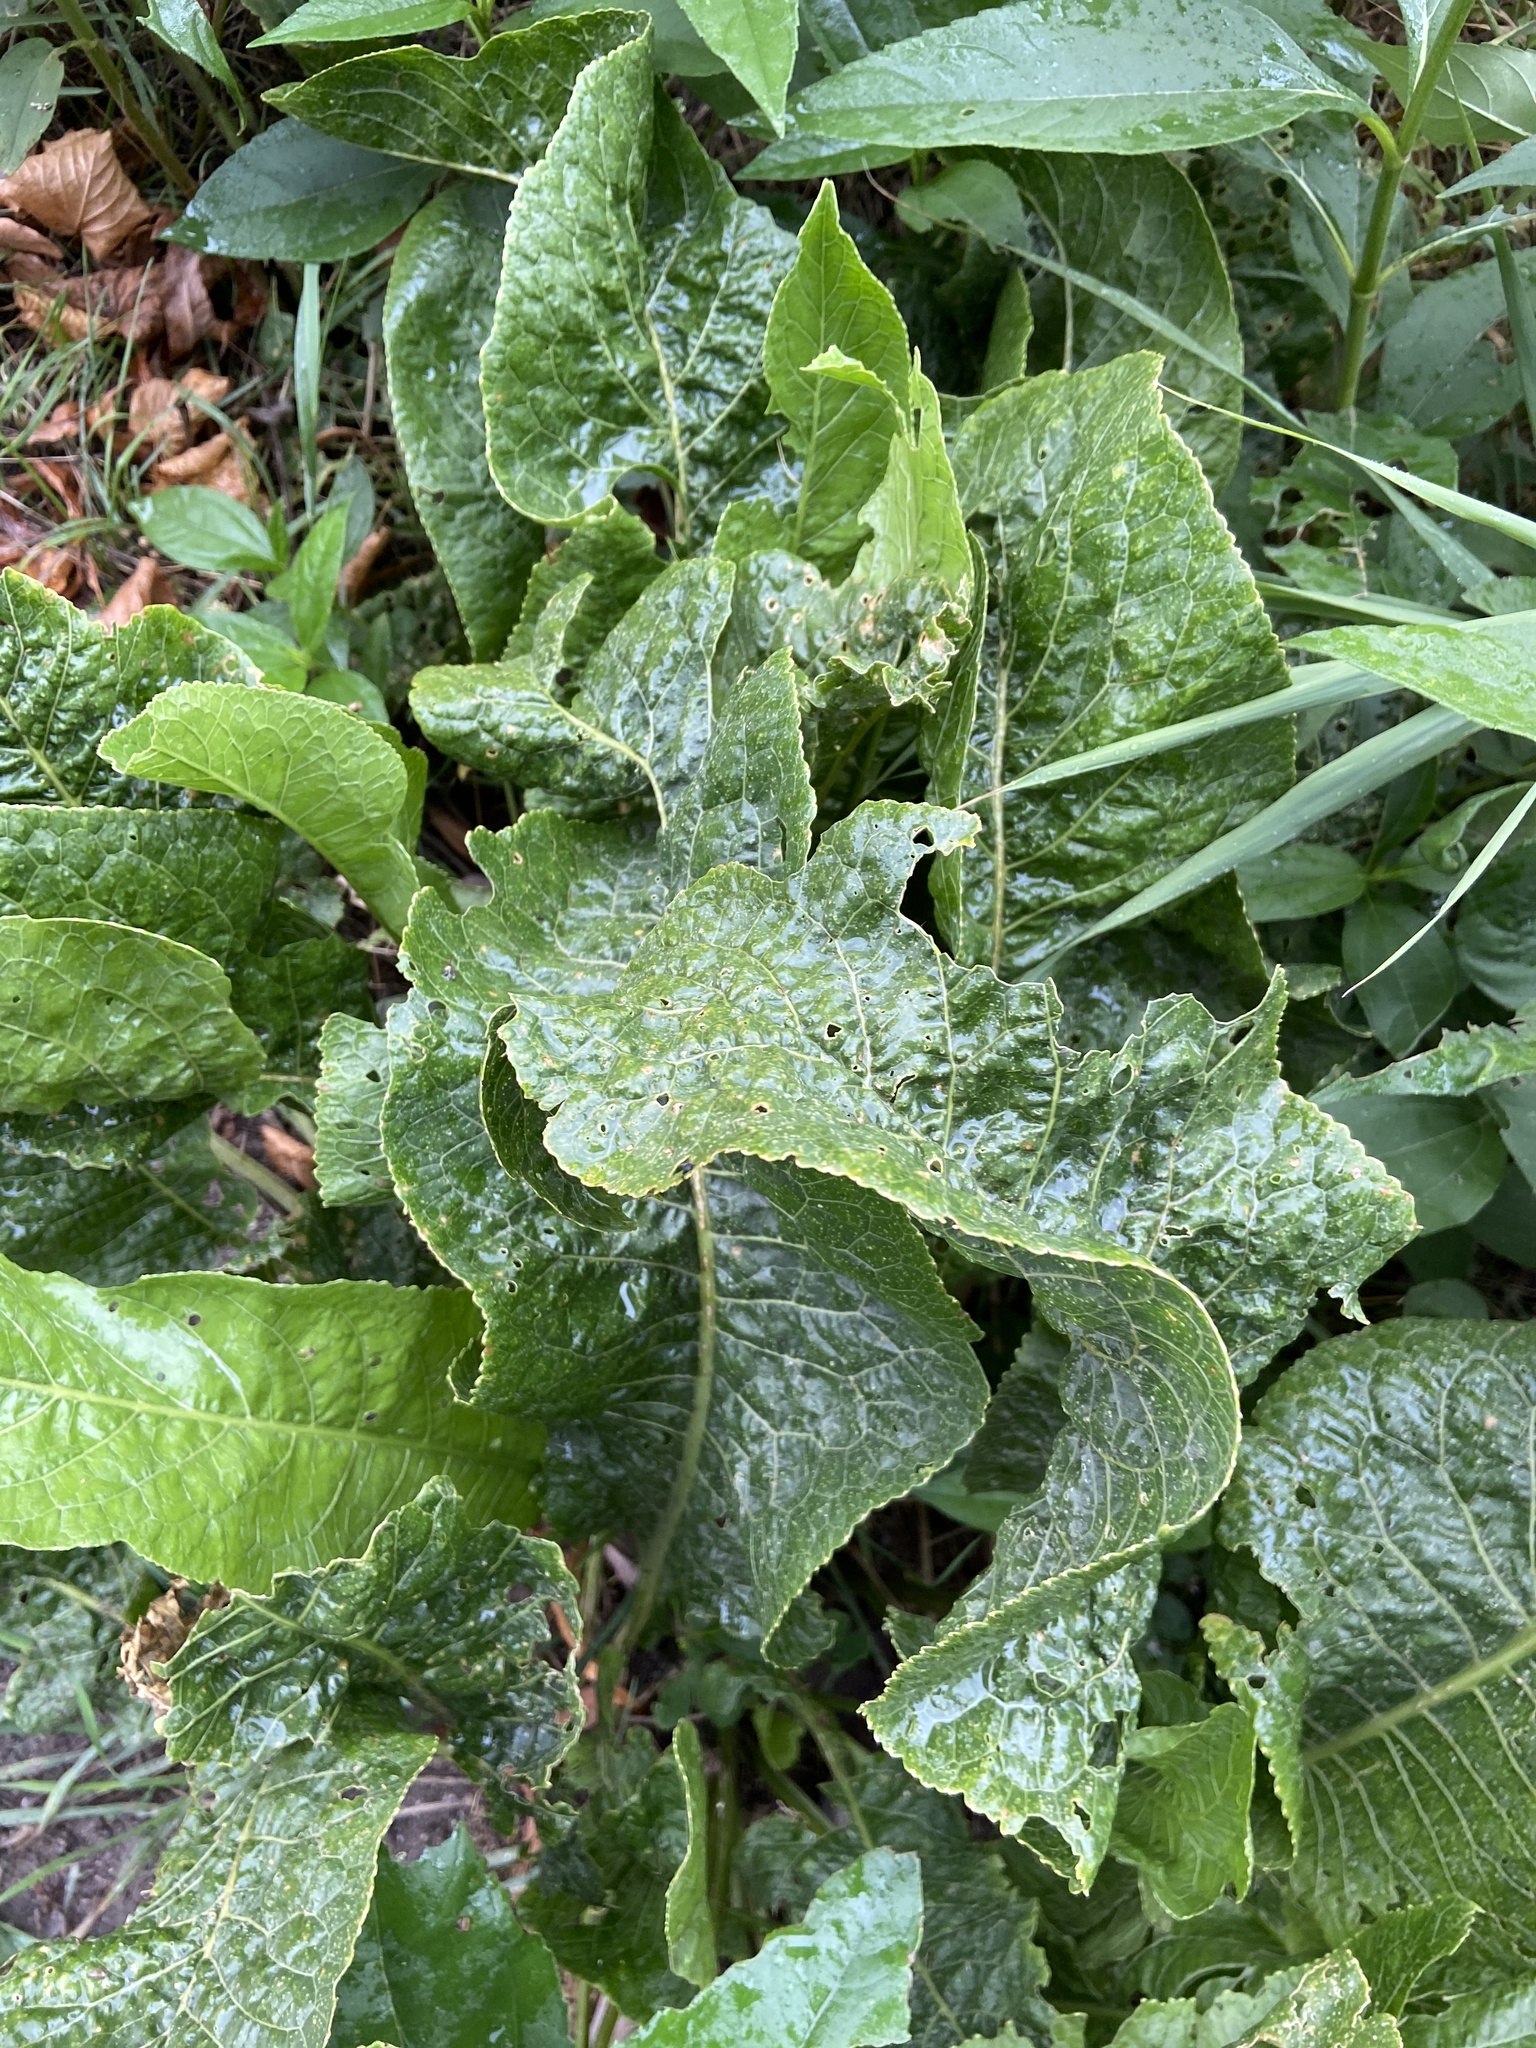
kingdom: Plantae
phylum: Tracheophyta
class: Magnoliopsida
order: Brassicales
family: Brassicaceae
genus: Armoracia
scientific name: Armoracia rusticana
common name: Horseradish
